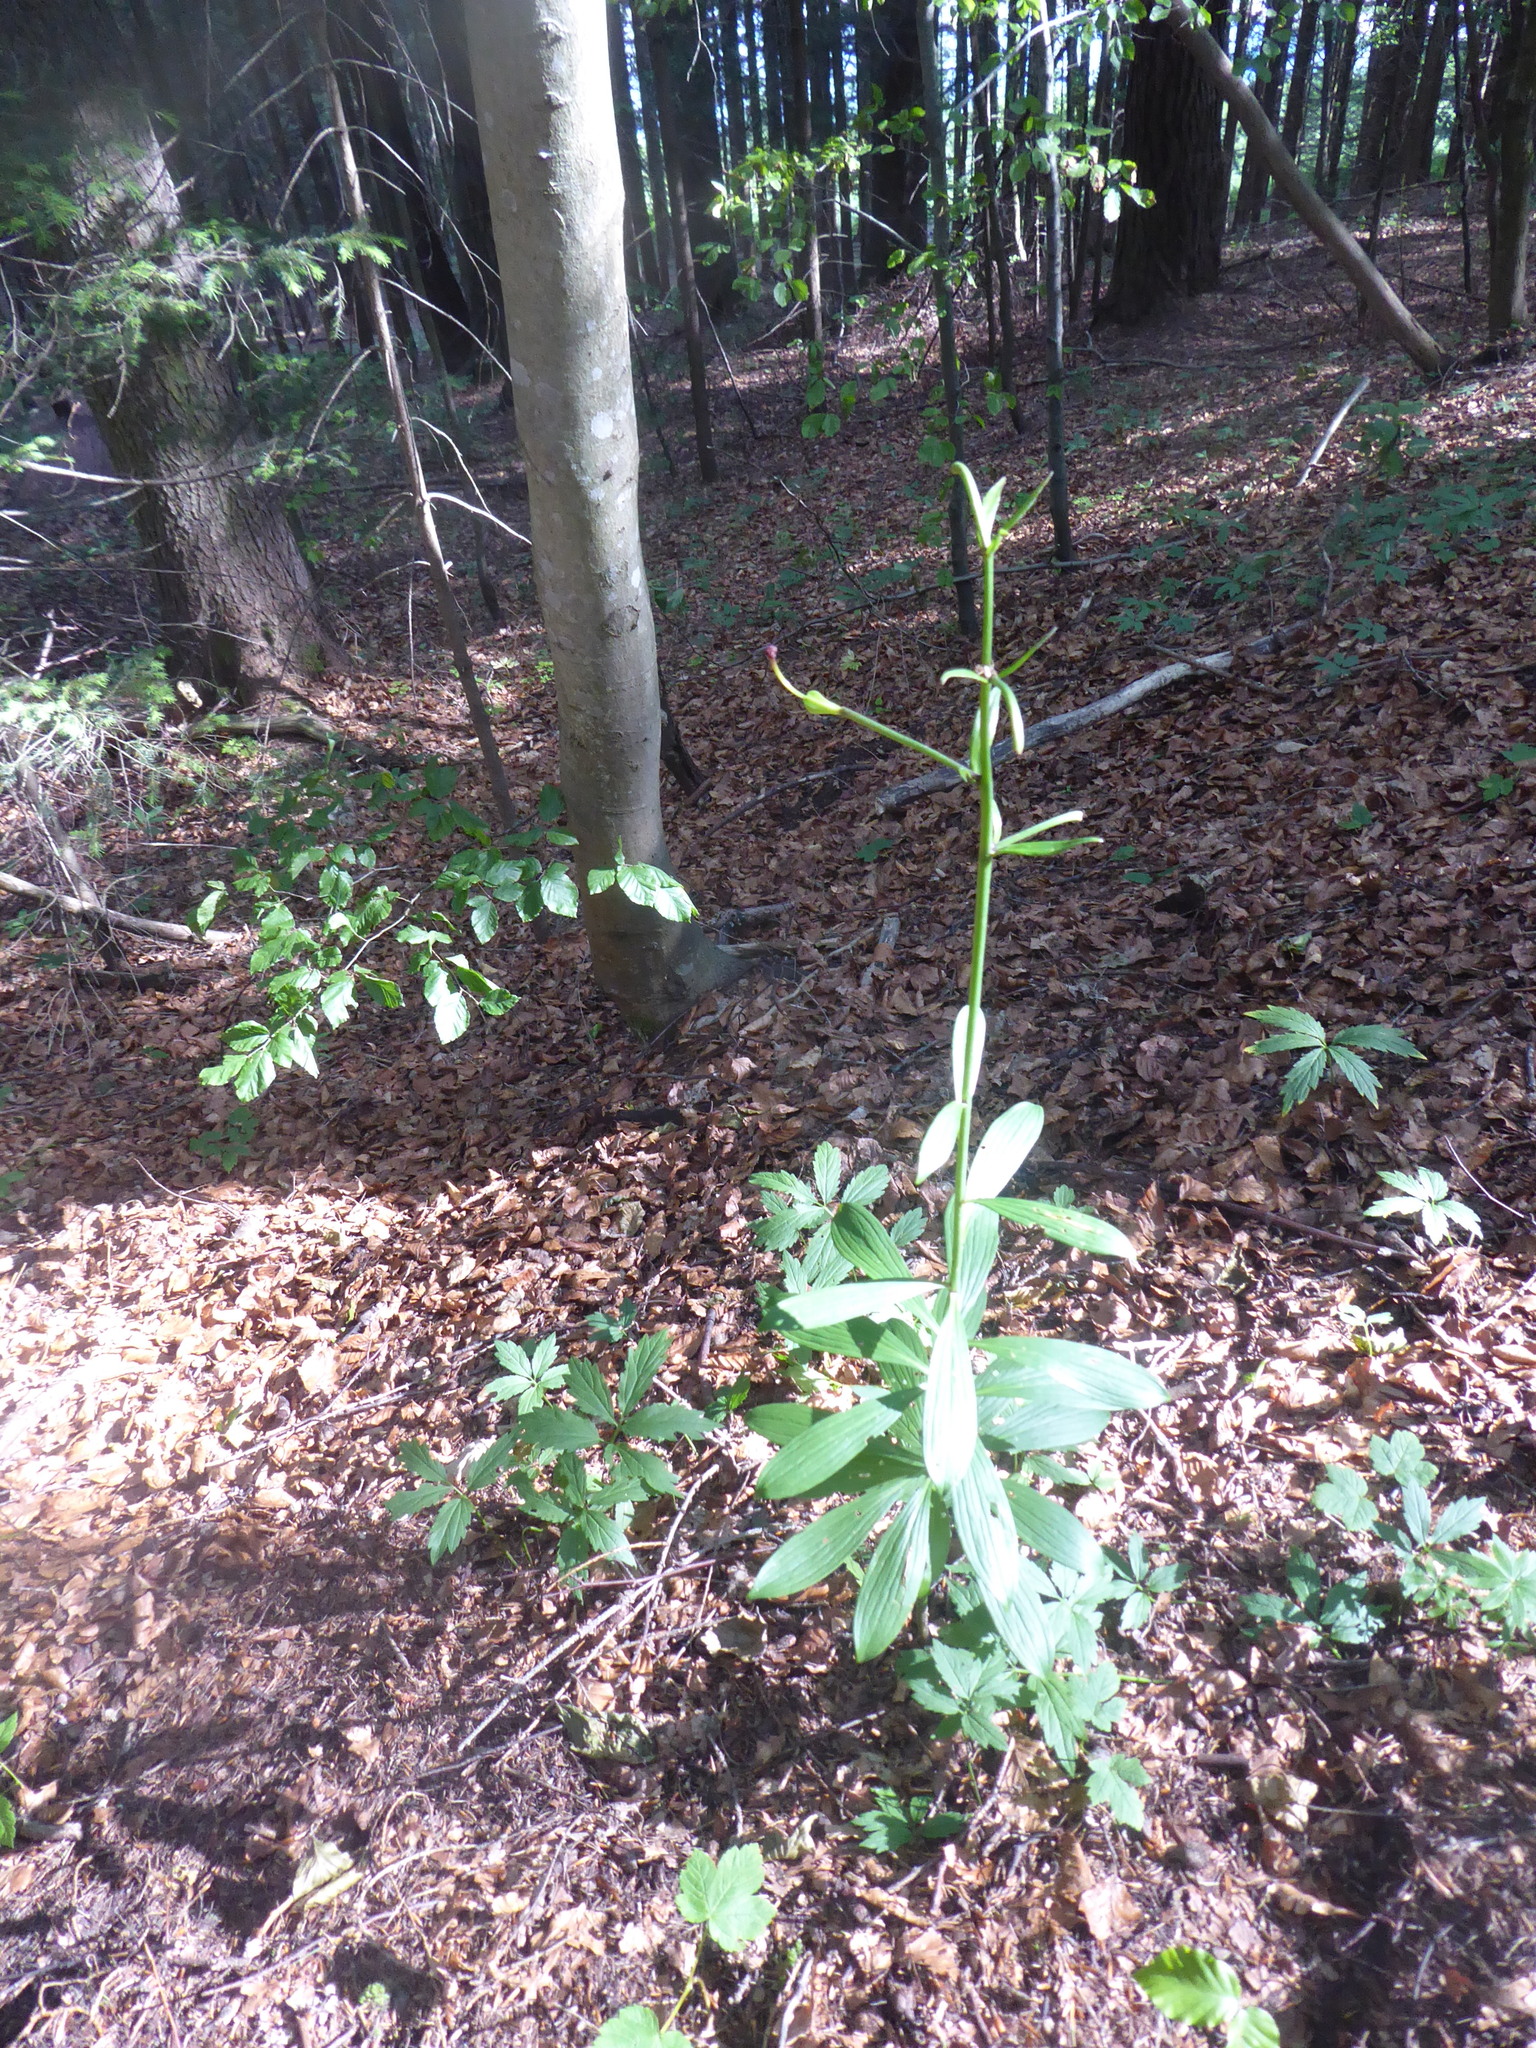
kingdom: Plantae
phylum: Tracheophyta
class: Liliopsida
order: Liliales
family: Liliaceae
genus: Lilium
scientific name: Lilium martagon
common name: Martagon lily
